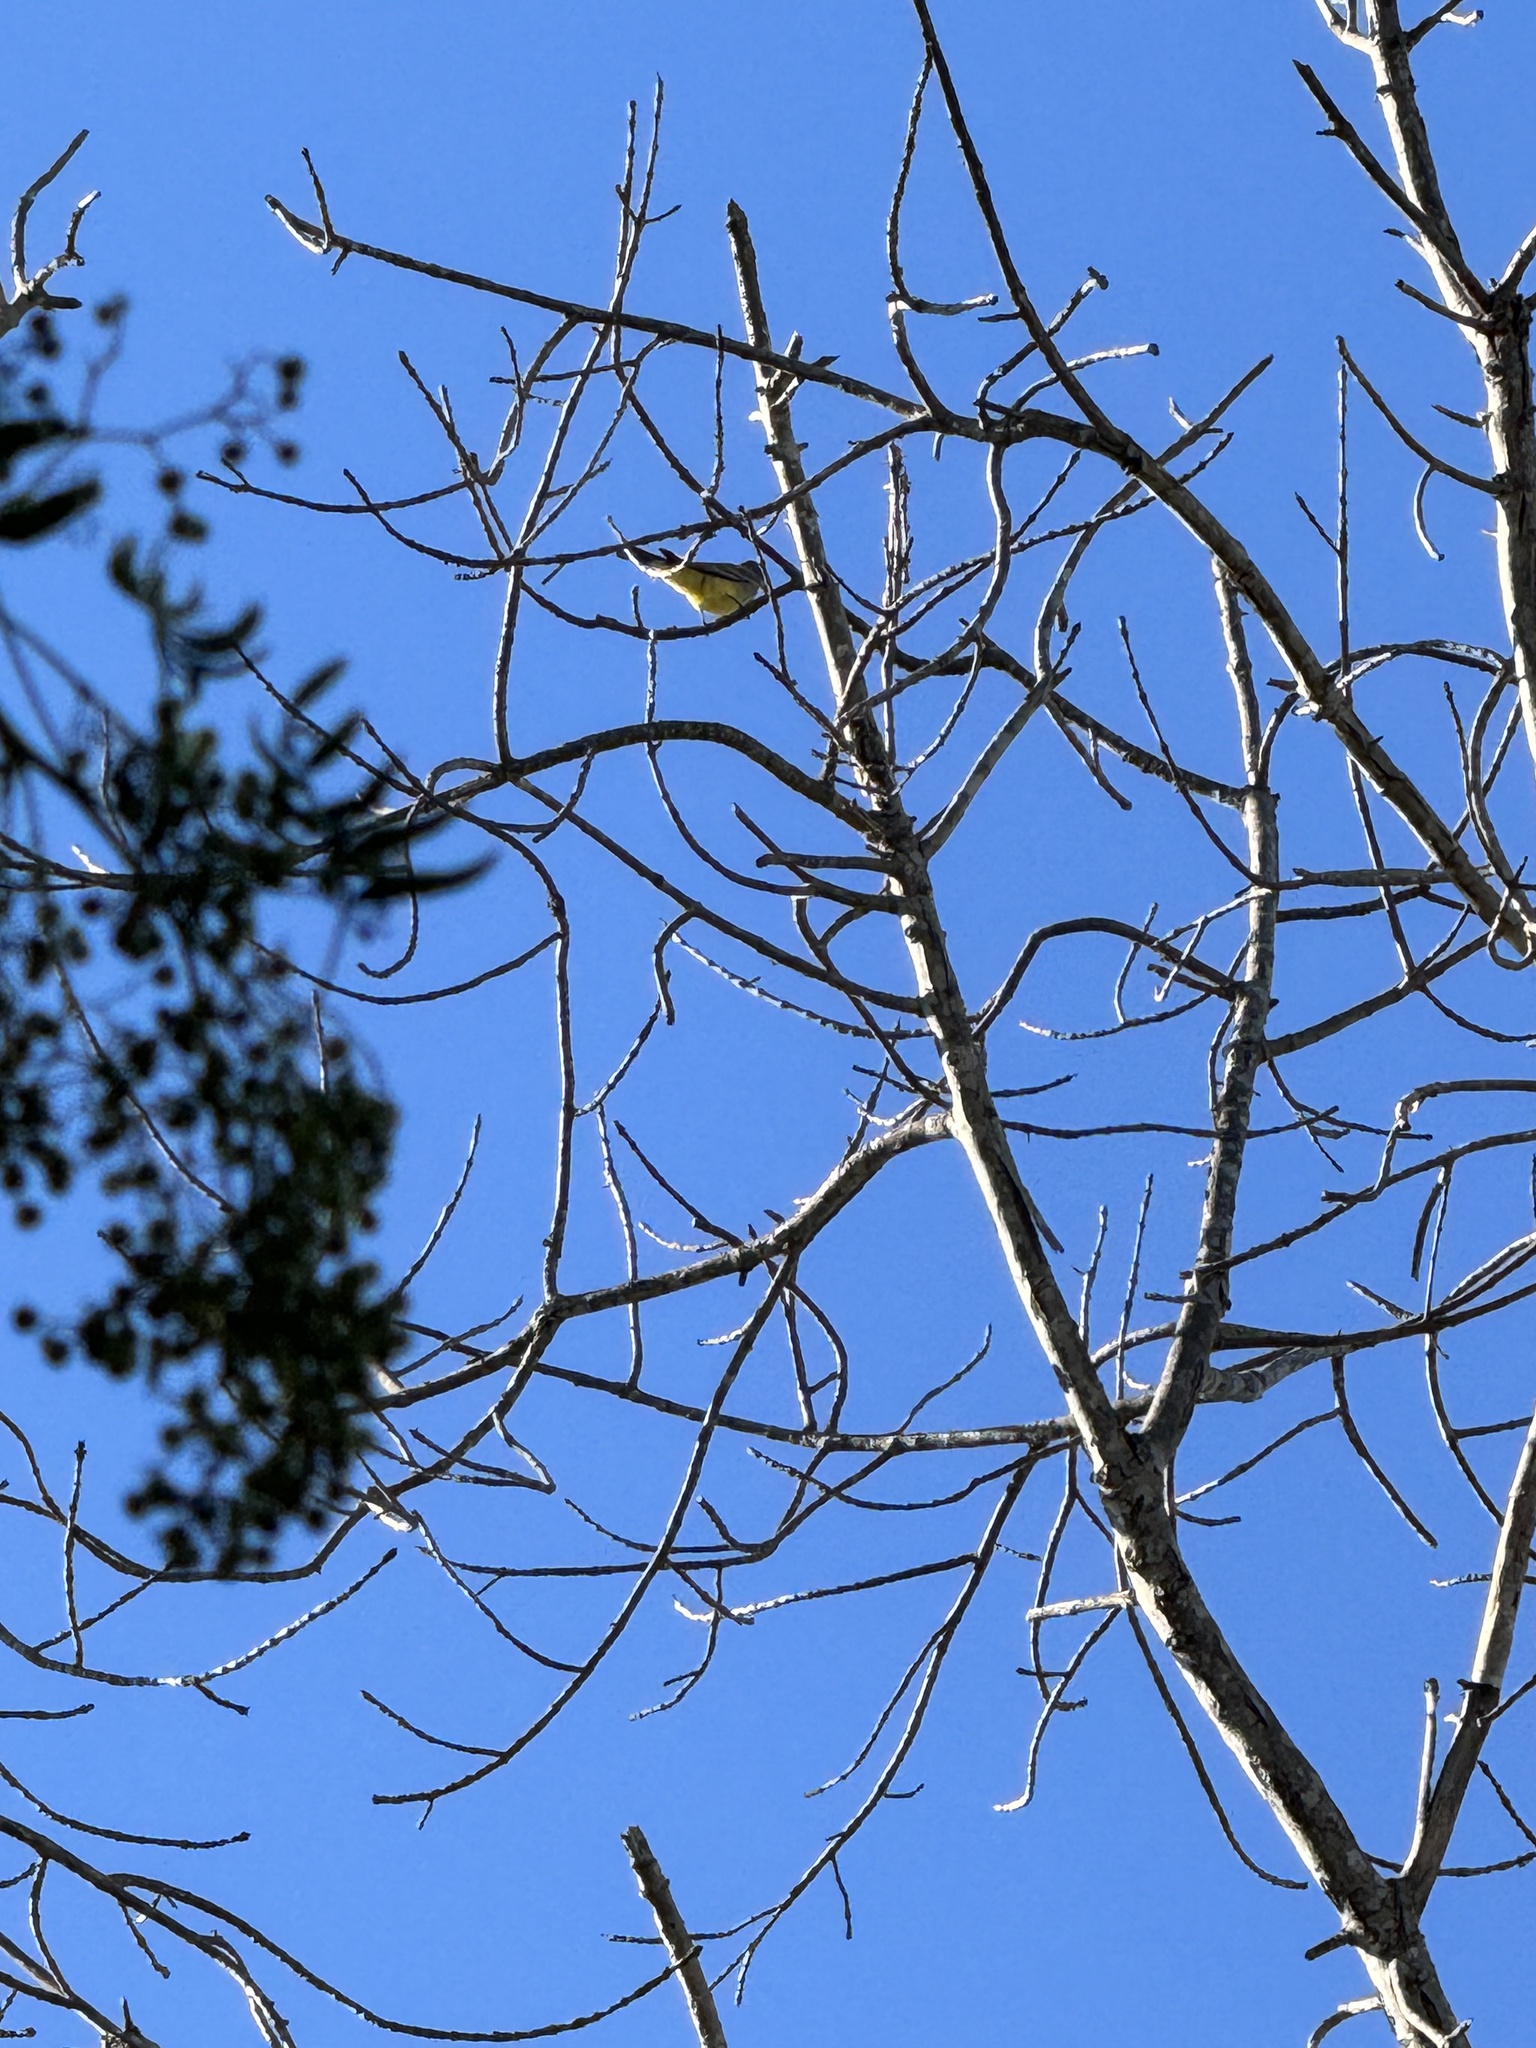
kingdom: Animalia
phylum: Chordata
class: Aves
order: Passeriformes
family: Tyrannidae
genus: Tyrannus
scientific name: Tyrannus vociferans
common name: Cassin's kingbird
